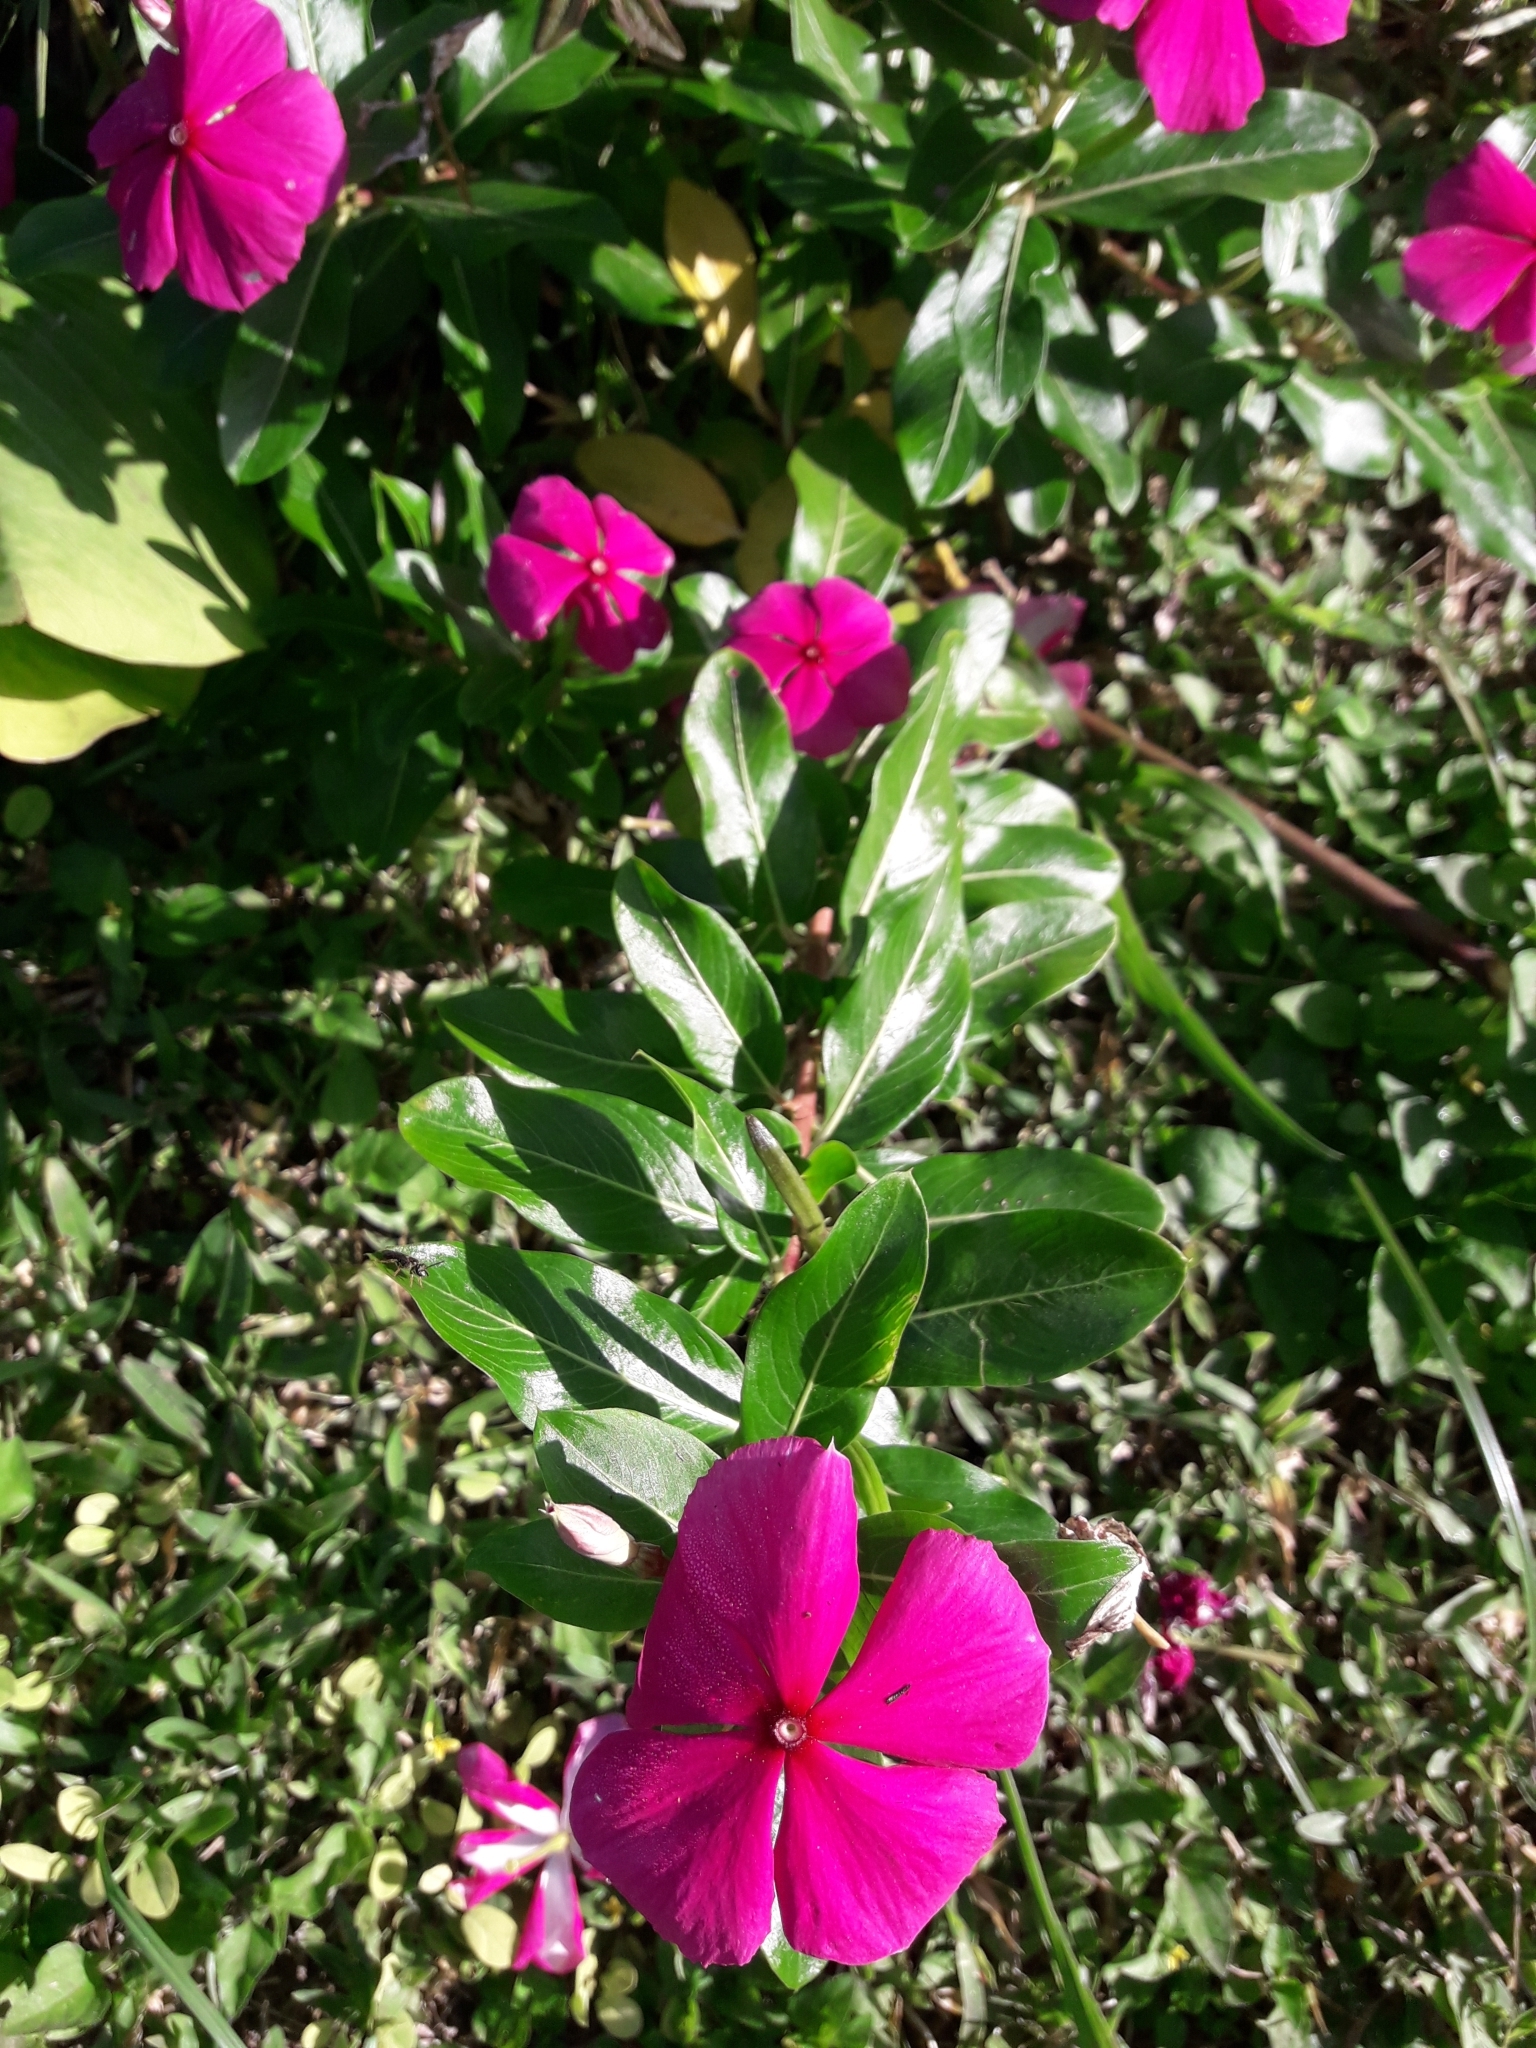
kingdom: Plantae
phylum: Tracheophyta
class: Magnoliopsida
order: Gentianales
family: Apocynaceae
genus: Catharanthus
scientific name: Catharanthus roseus
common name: Madagascar periwinkle
